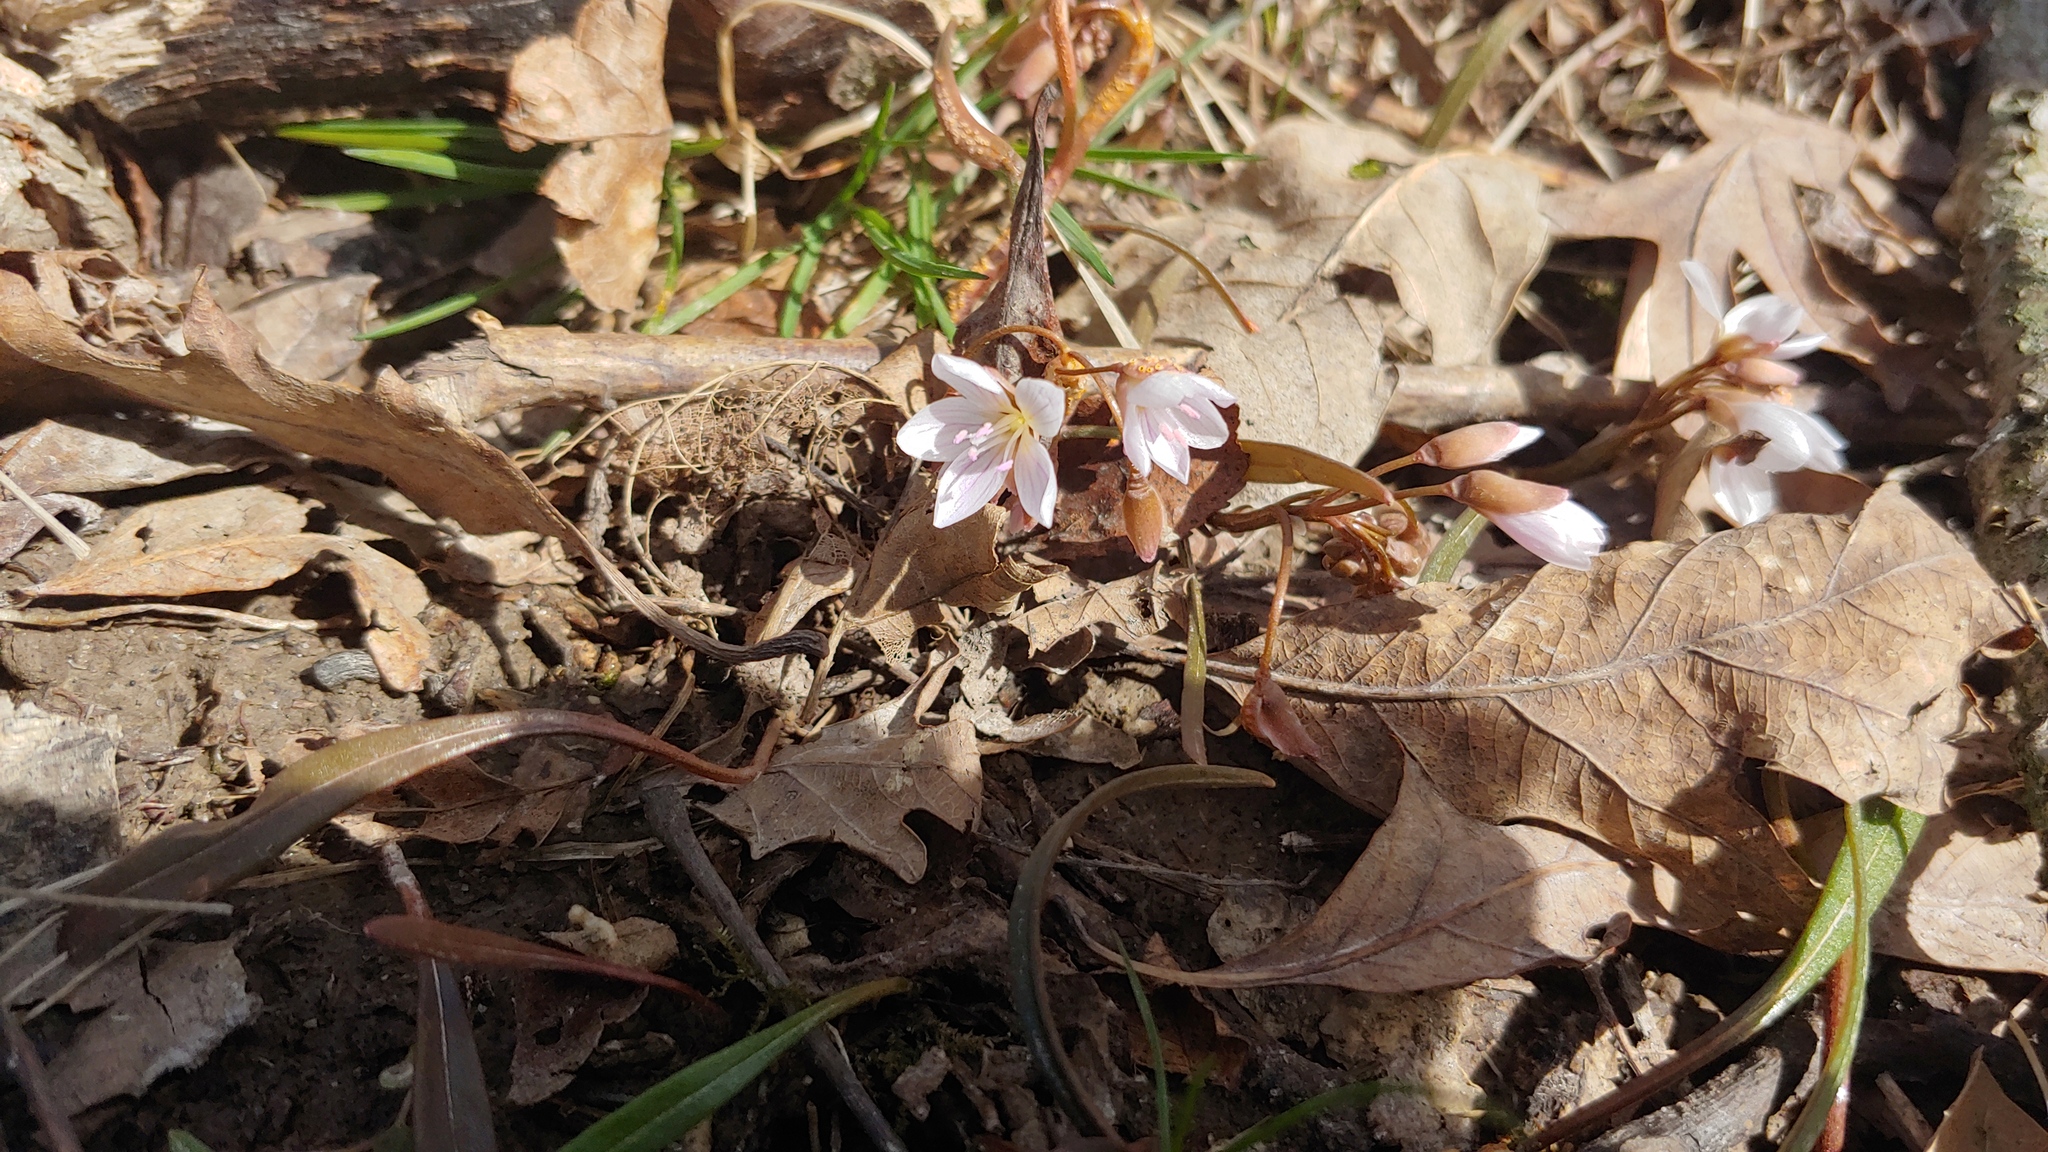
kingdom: Plantae
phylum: Tracheophyta
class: Magnoliopsida
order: Caryophyllales
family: Montiaceae
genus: Claytonia
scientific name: Claytonia virginica
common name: Virginia springbeauty
